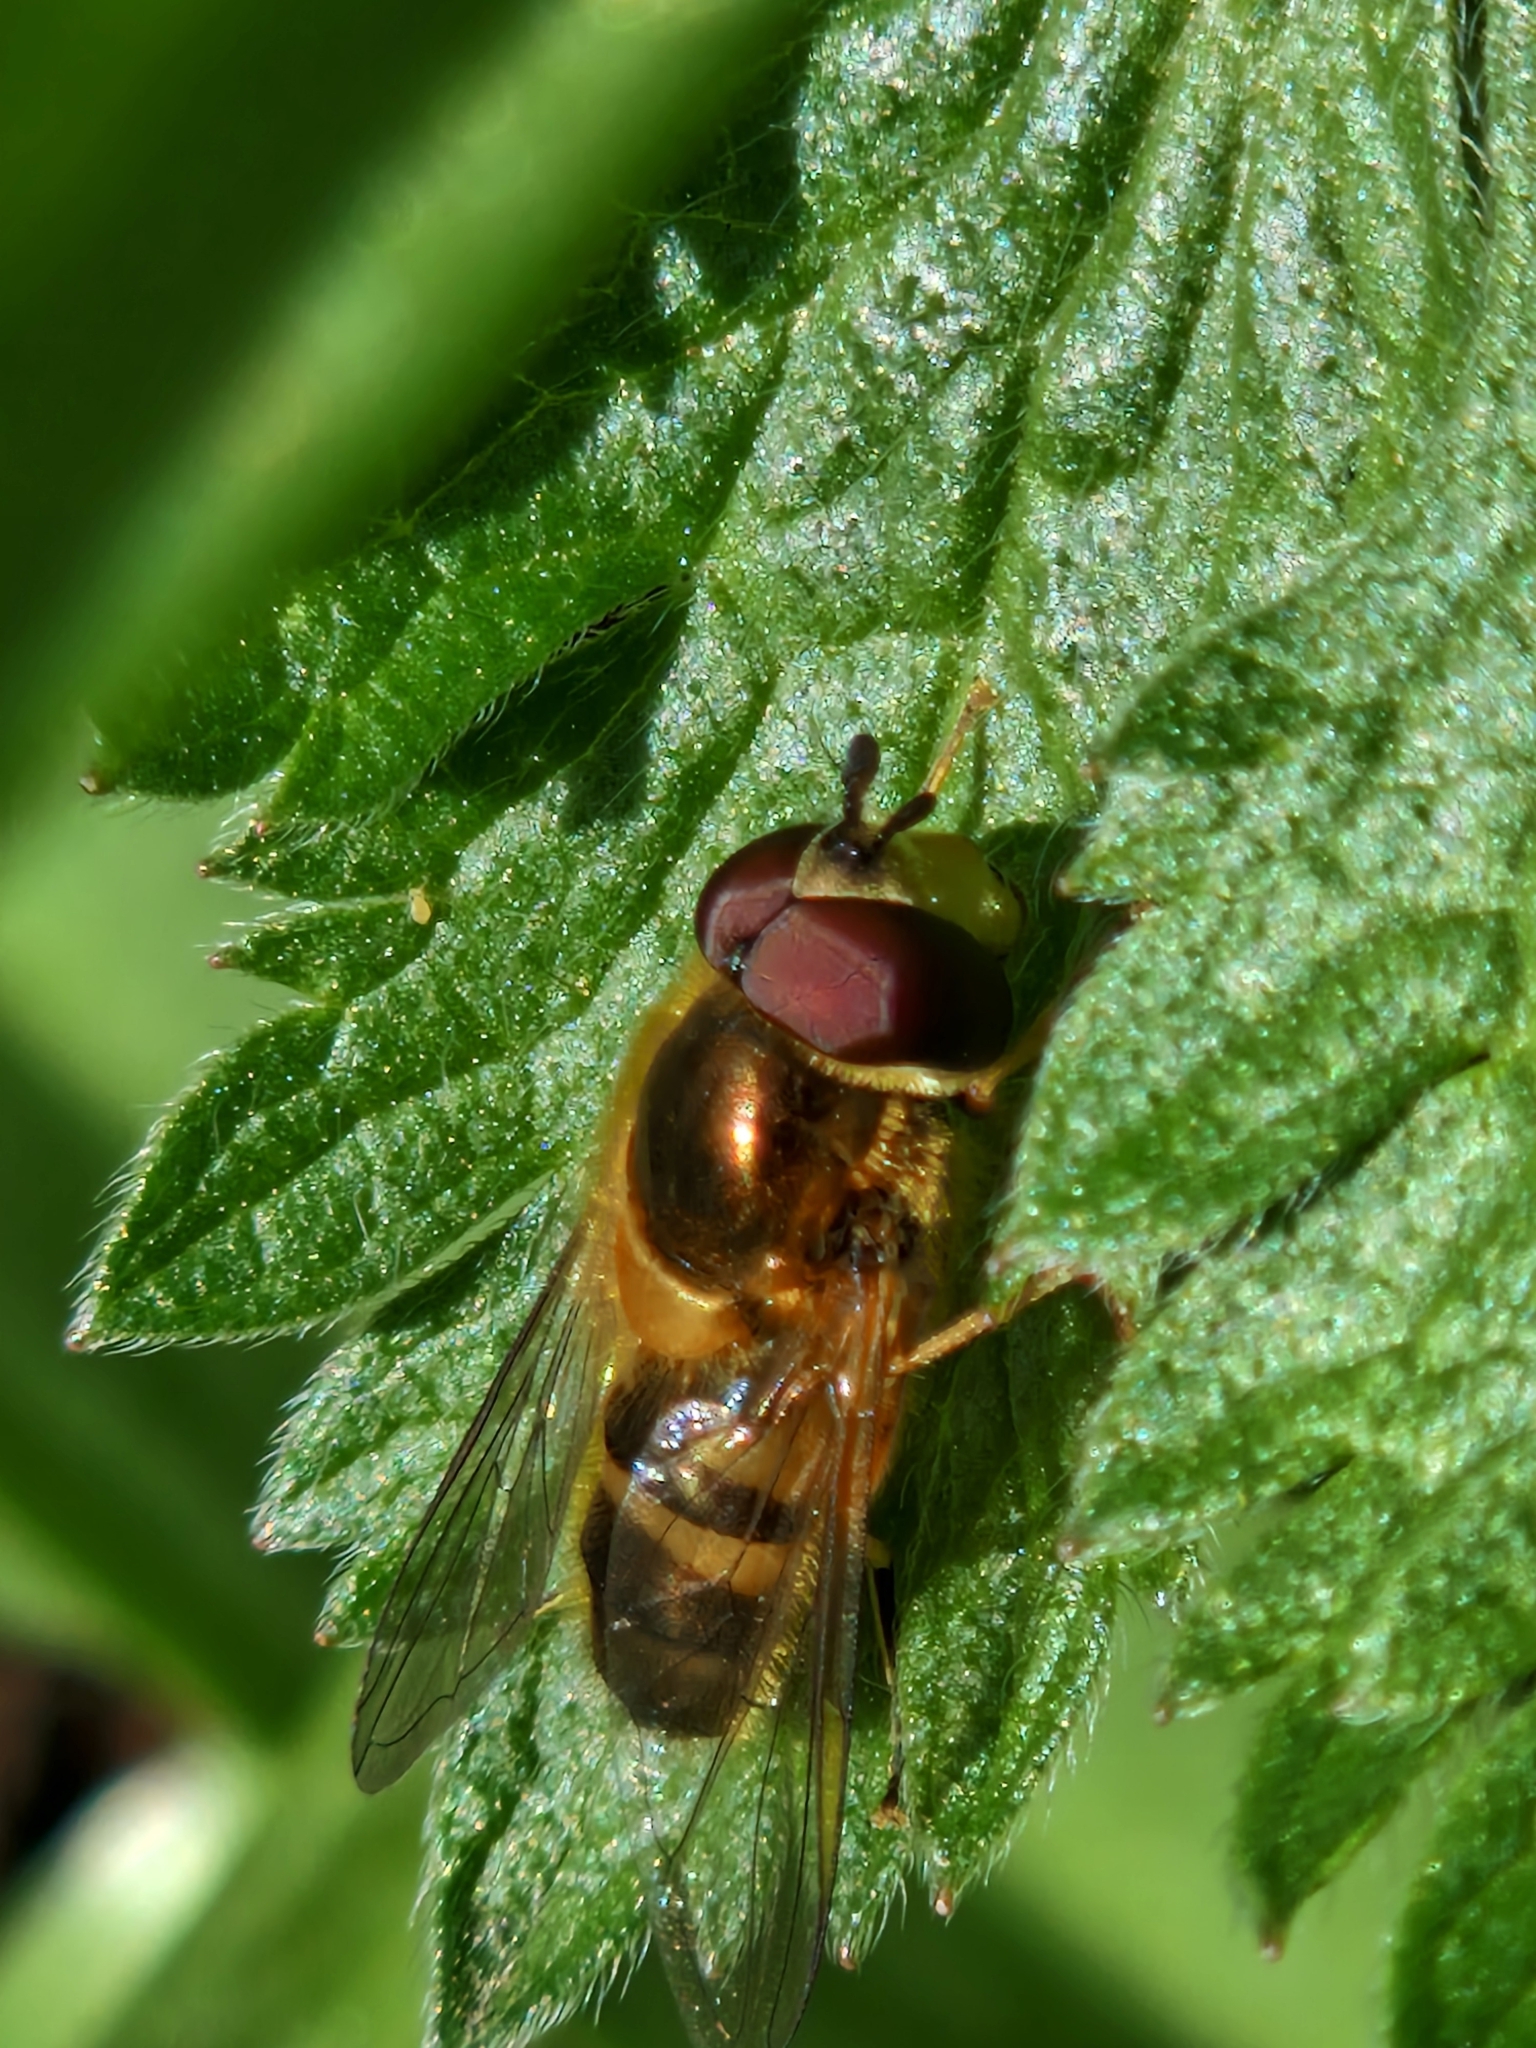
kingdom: Animalia
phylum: Arthropoda
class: Insecta
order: Diptera
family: Syrphidae
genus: Epistrophe
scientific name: Epistrophe eligans
